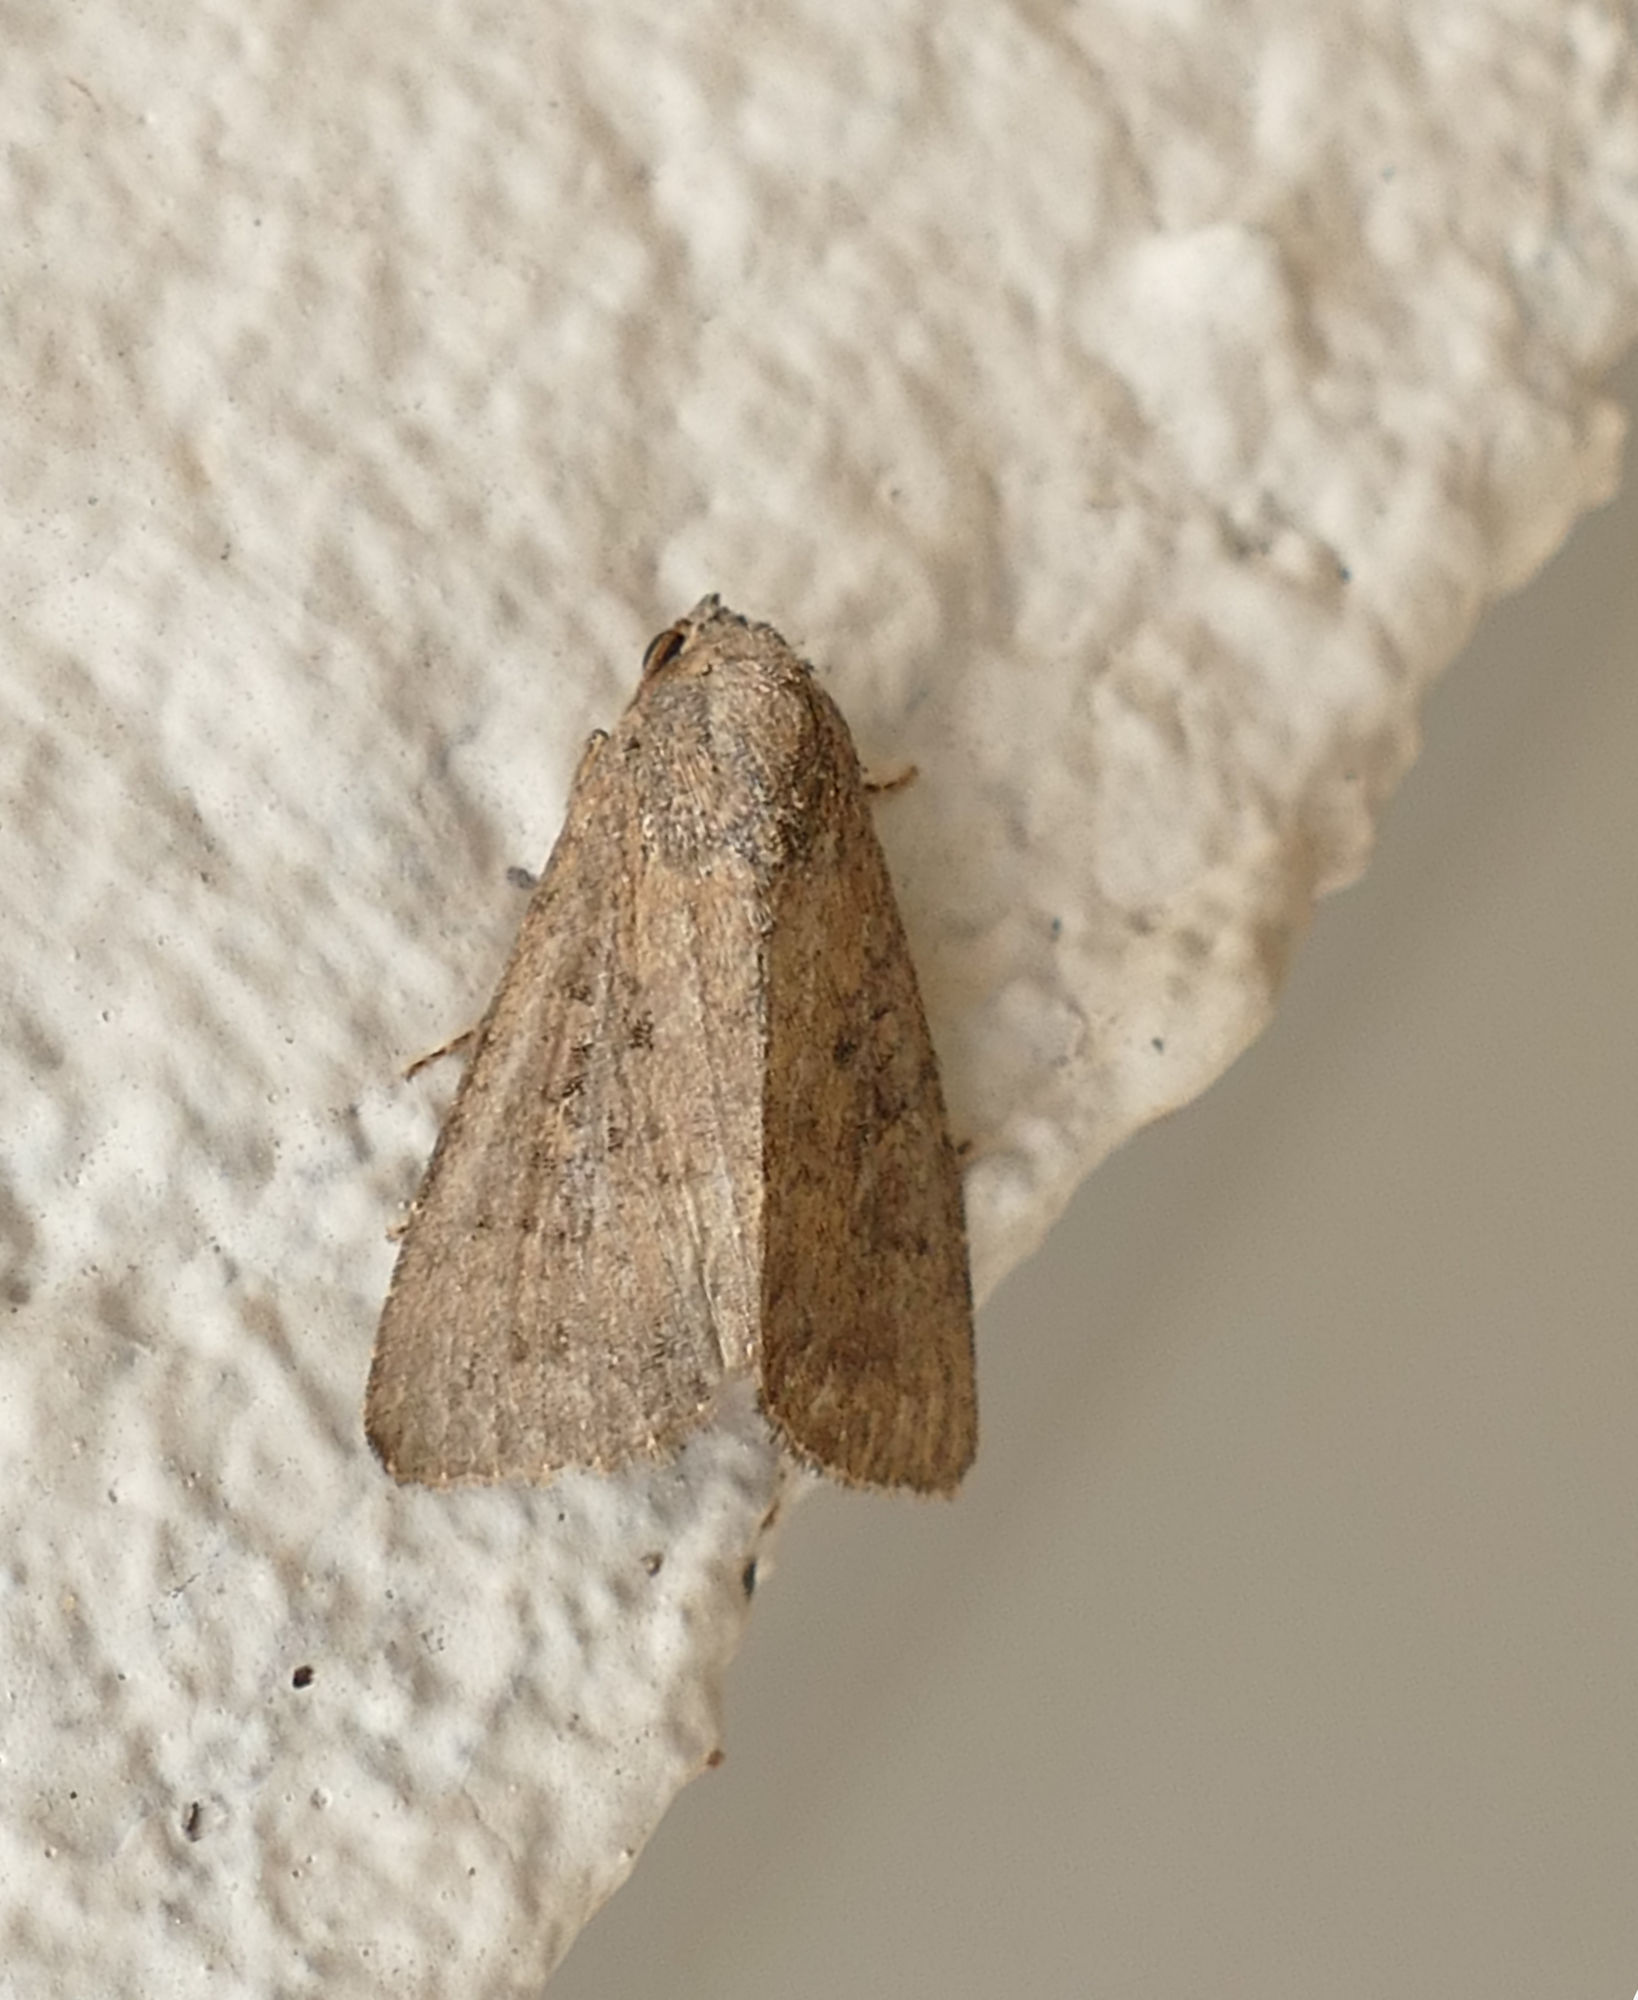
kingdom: Animalia
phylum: Arthropoda
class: Insecta
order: Lepidoptera
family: Noctuidae
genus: Condica
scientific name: Condica sutor
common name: Cobbler moth
